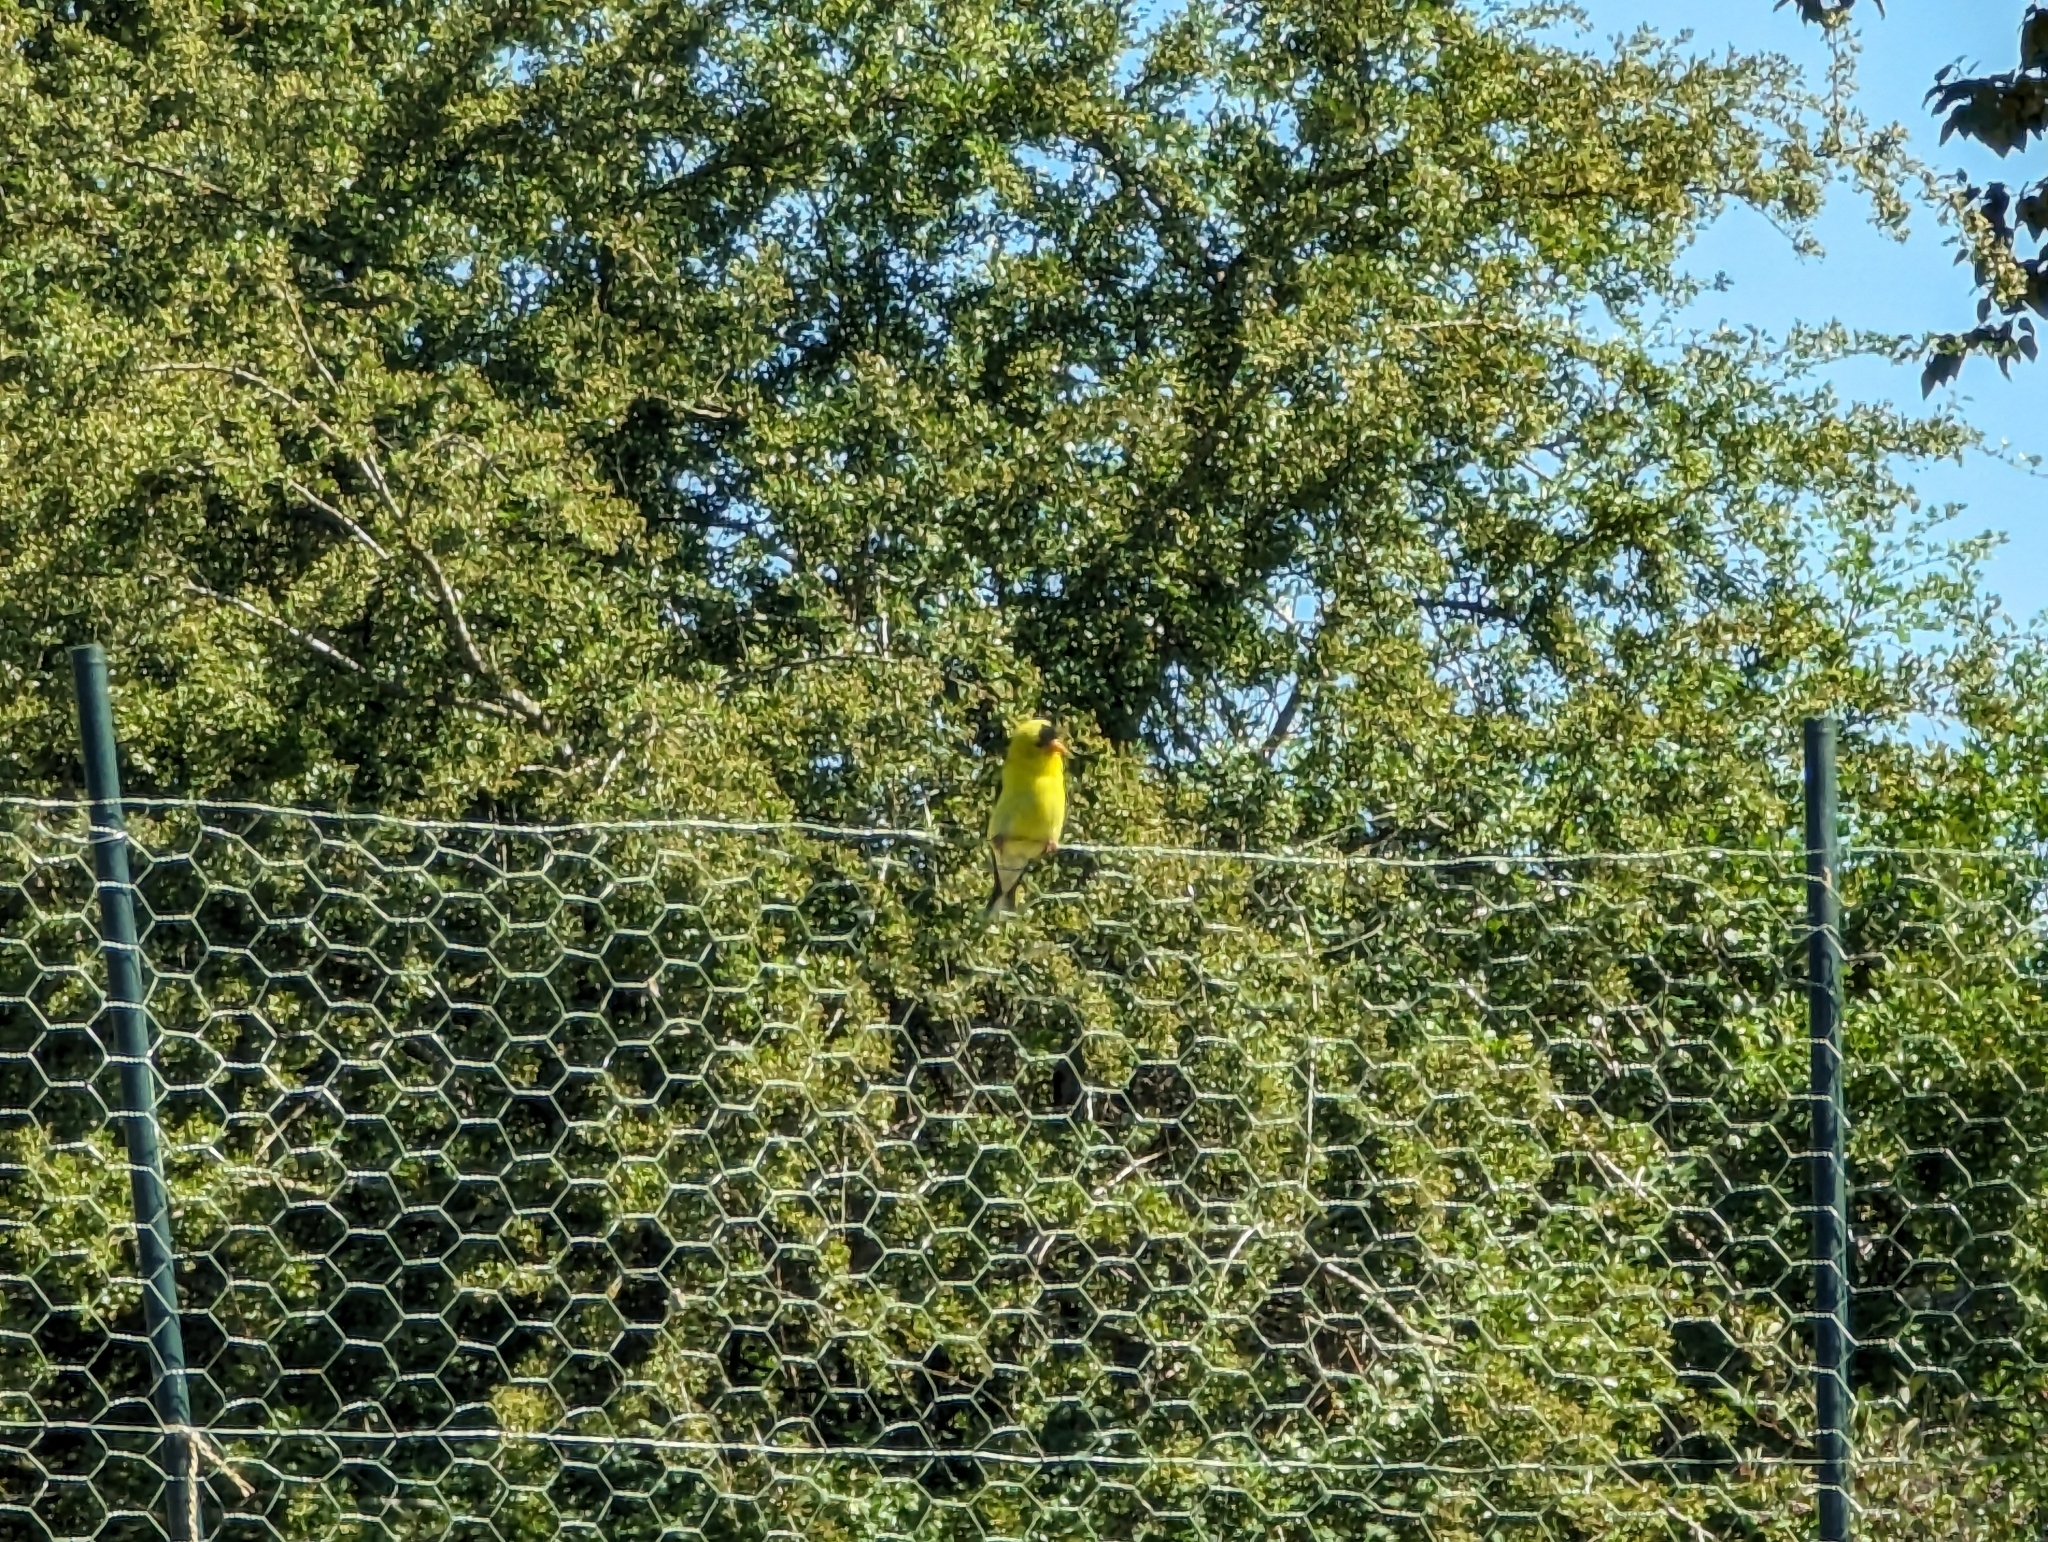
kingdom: Animalia
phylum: Chordata
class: Aves
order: Passeriformes
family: Fringillidae
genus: Spinus
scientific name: Spinus tristis
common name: American goldfinch
